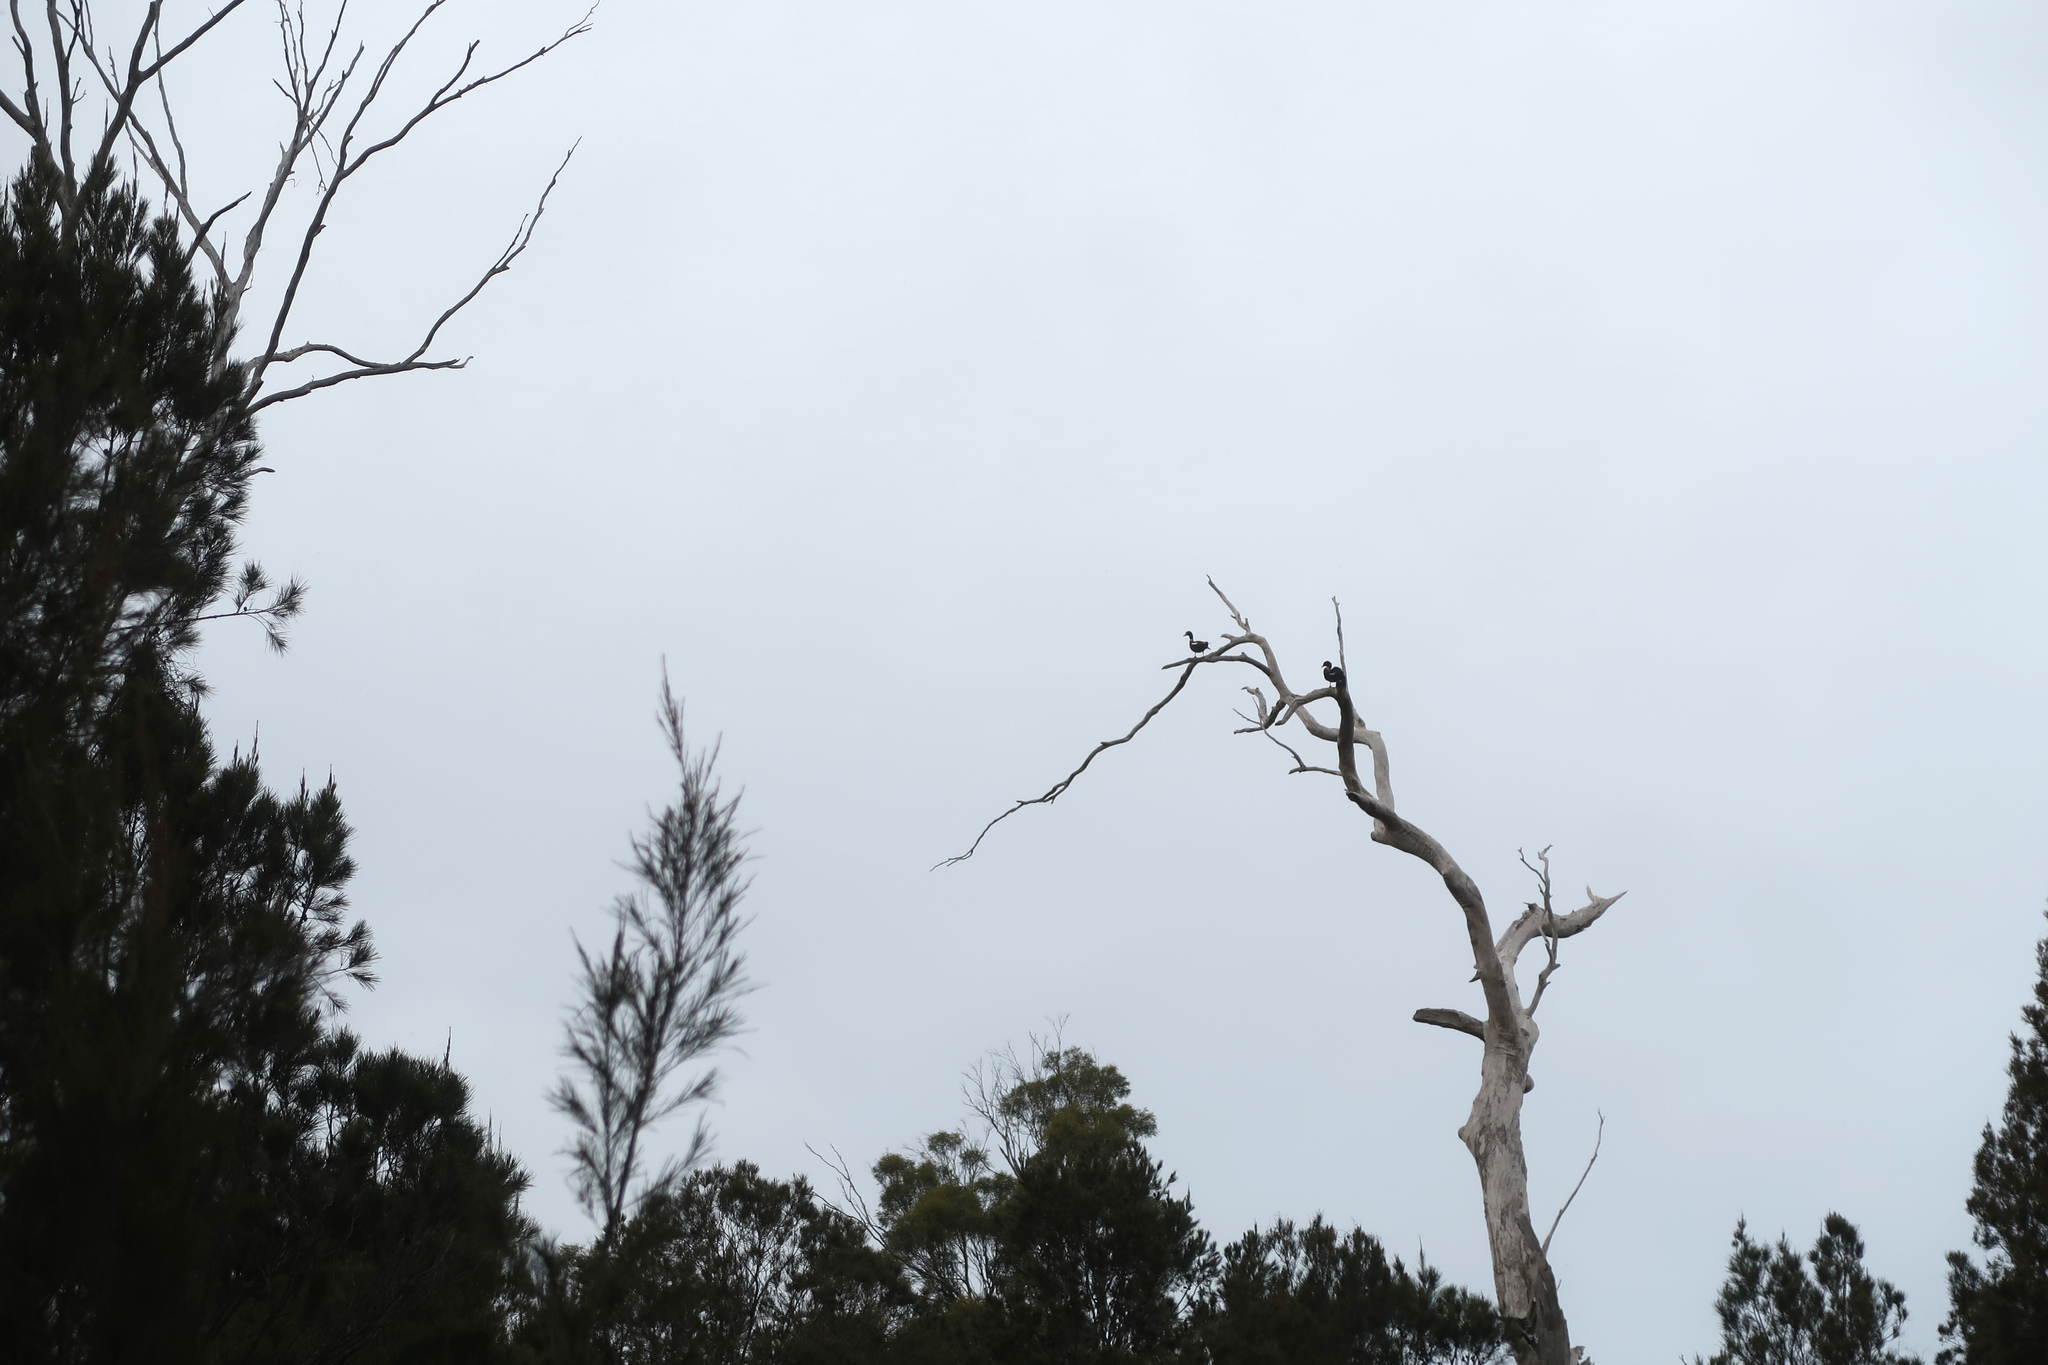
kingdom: Animalia
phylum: Chordata
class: Aves
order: Anseriformes
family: Anatidae
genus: Tadorna
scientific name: Tadorna tadornoides
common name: Australian shelduck
